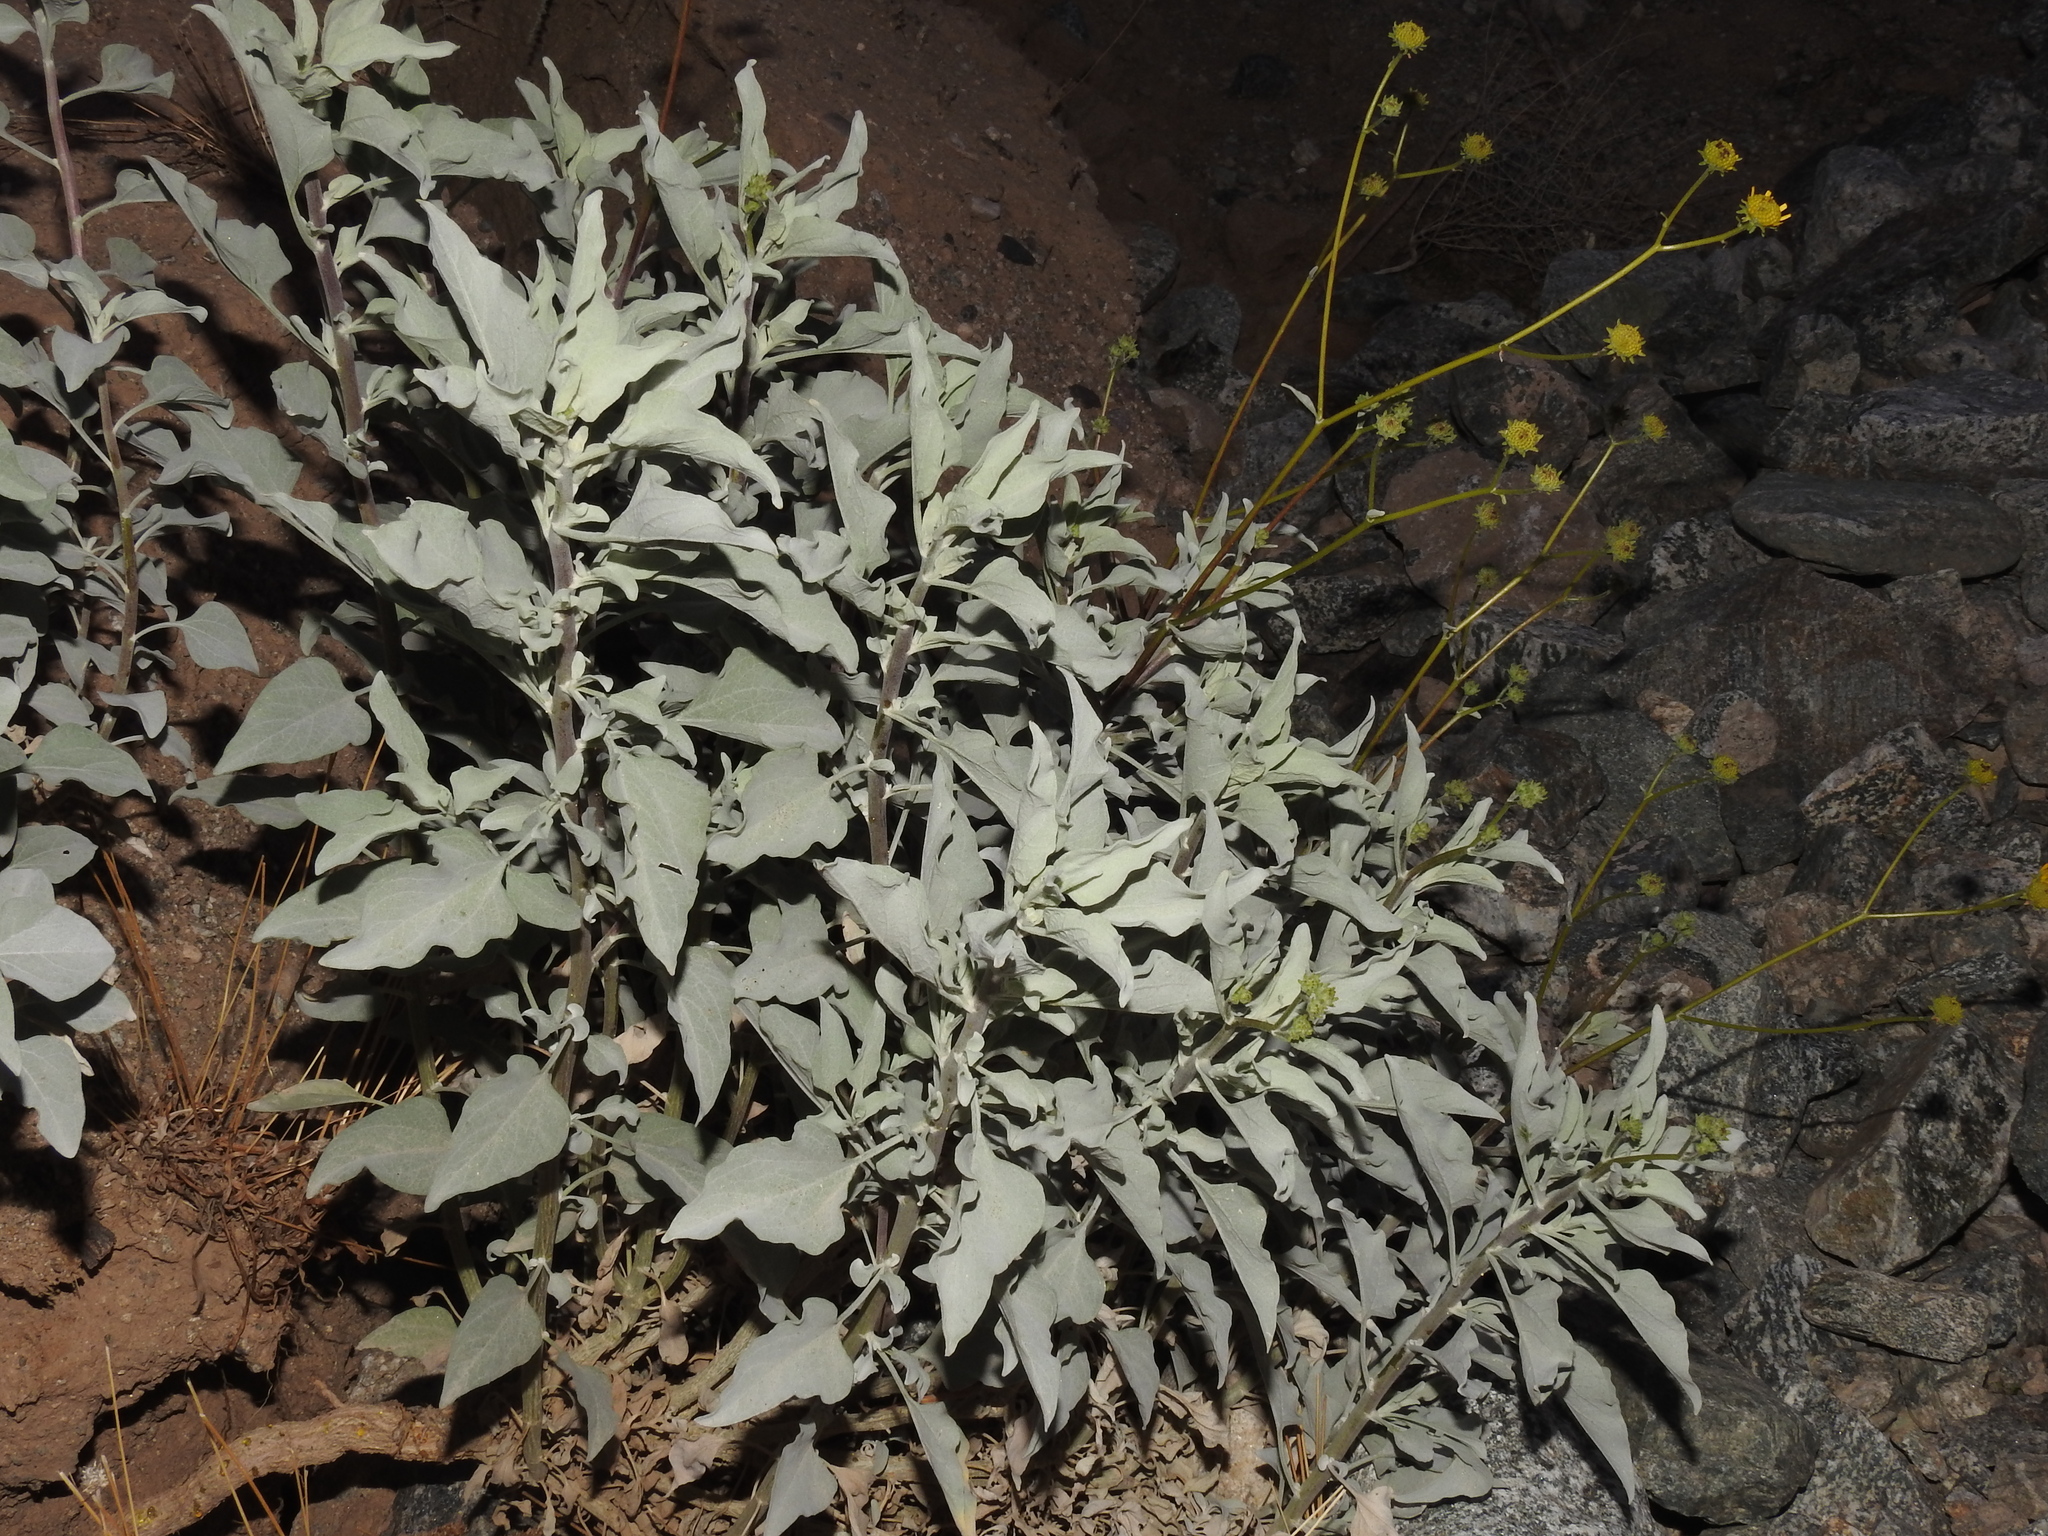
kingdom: Plantae
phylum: Tracheophyta
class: Magnoliopsida
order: Asterales
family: Asteraceae
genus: Encelia
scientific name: Encelia farinosa
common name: Brittlebush
